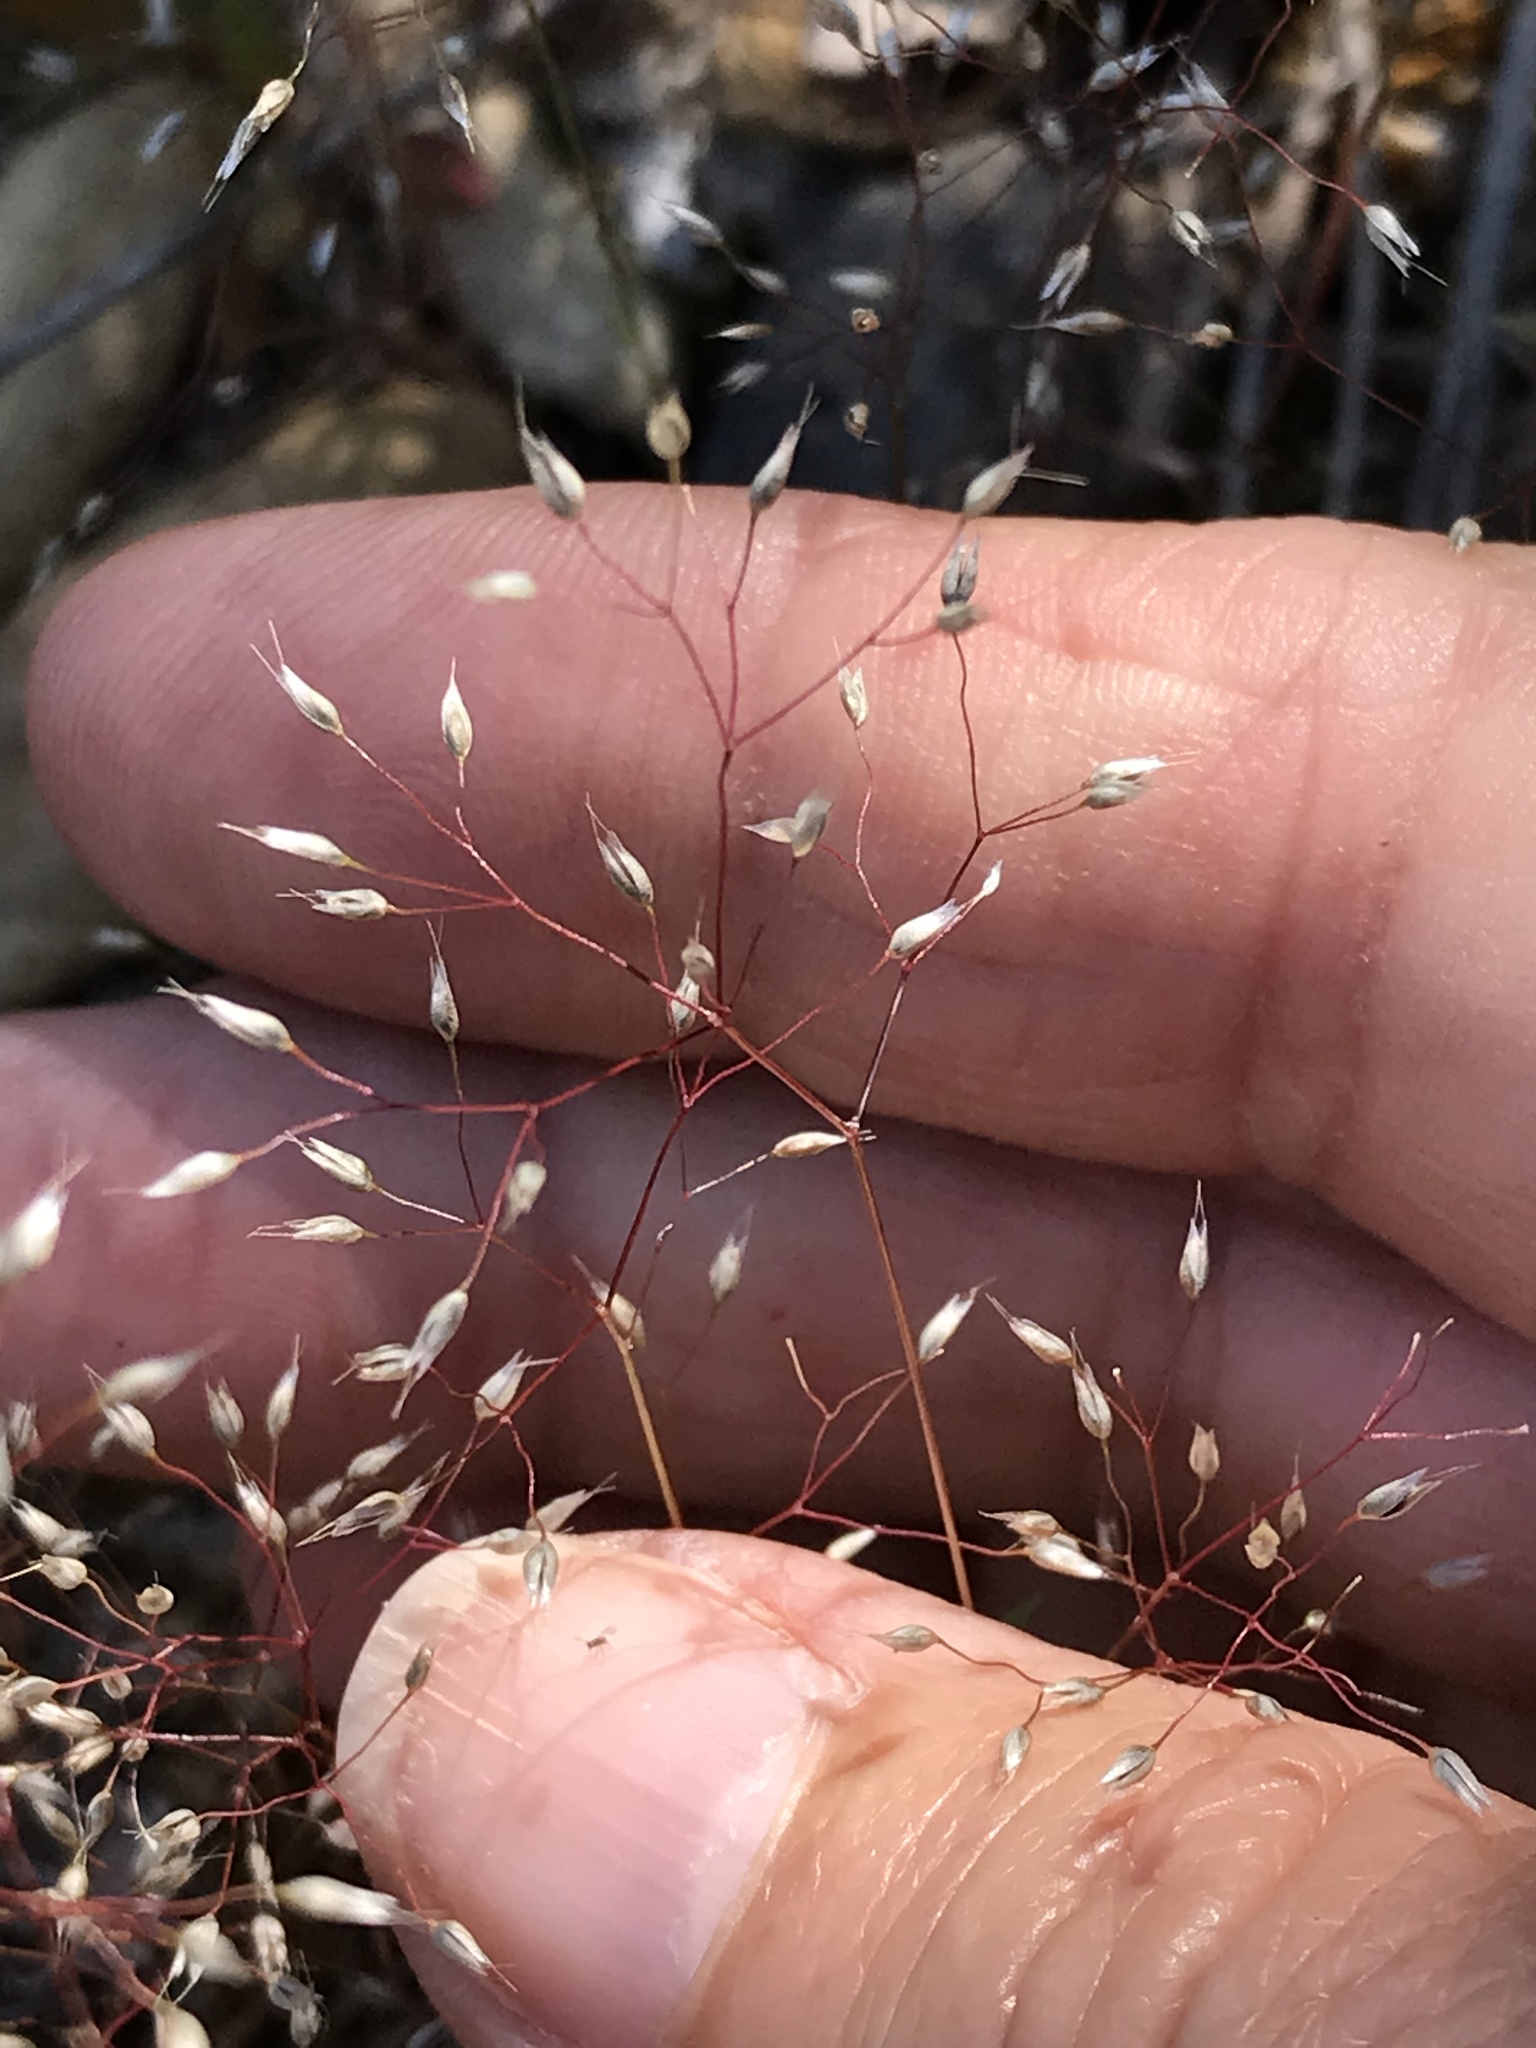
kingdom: Plantae
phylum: Tracheophyta
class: Liliopsida
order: Poales
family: Poaceae
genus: Aira
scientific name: Aira caryophyllea
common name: Silver hairgrass
